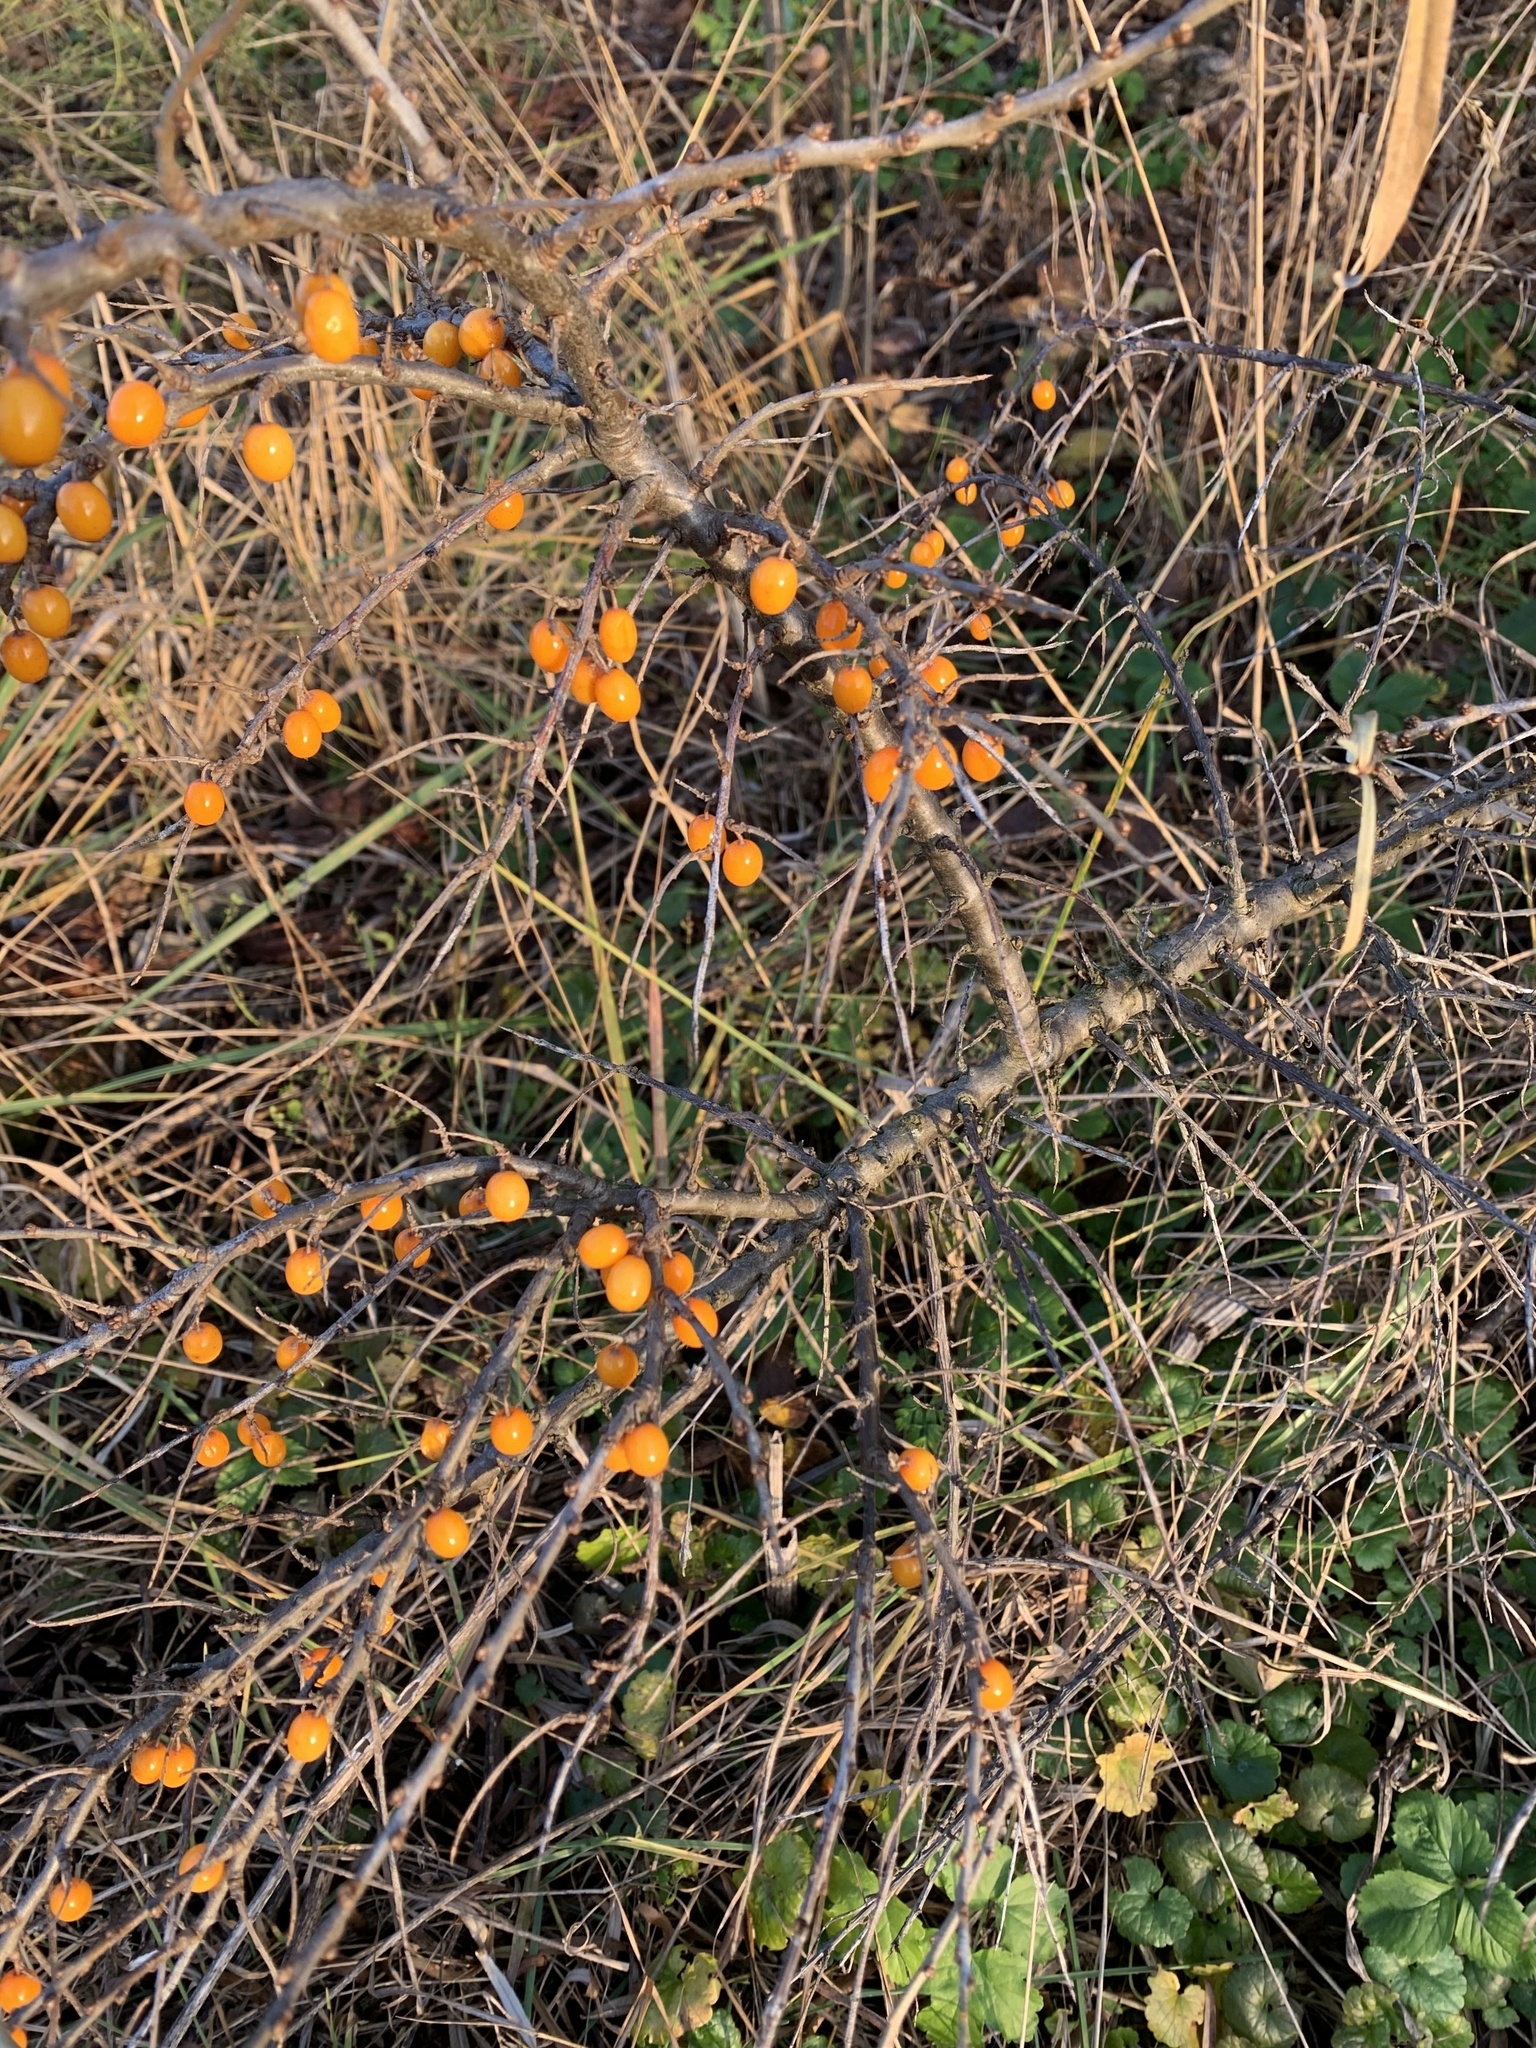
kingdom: Plantae
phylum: Tracheophyta
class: Magnoliopsida
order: Rosales
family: Elaeagnaceae
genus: Hippophae
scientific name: Hippophae rhamnoides
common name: Sea-buckthorn
